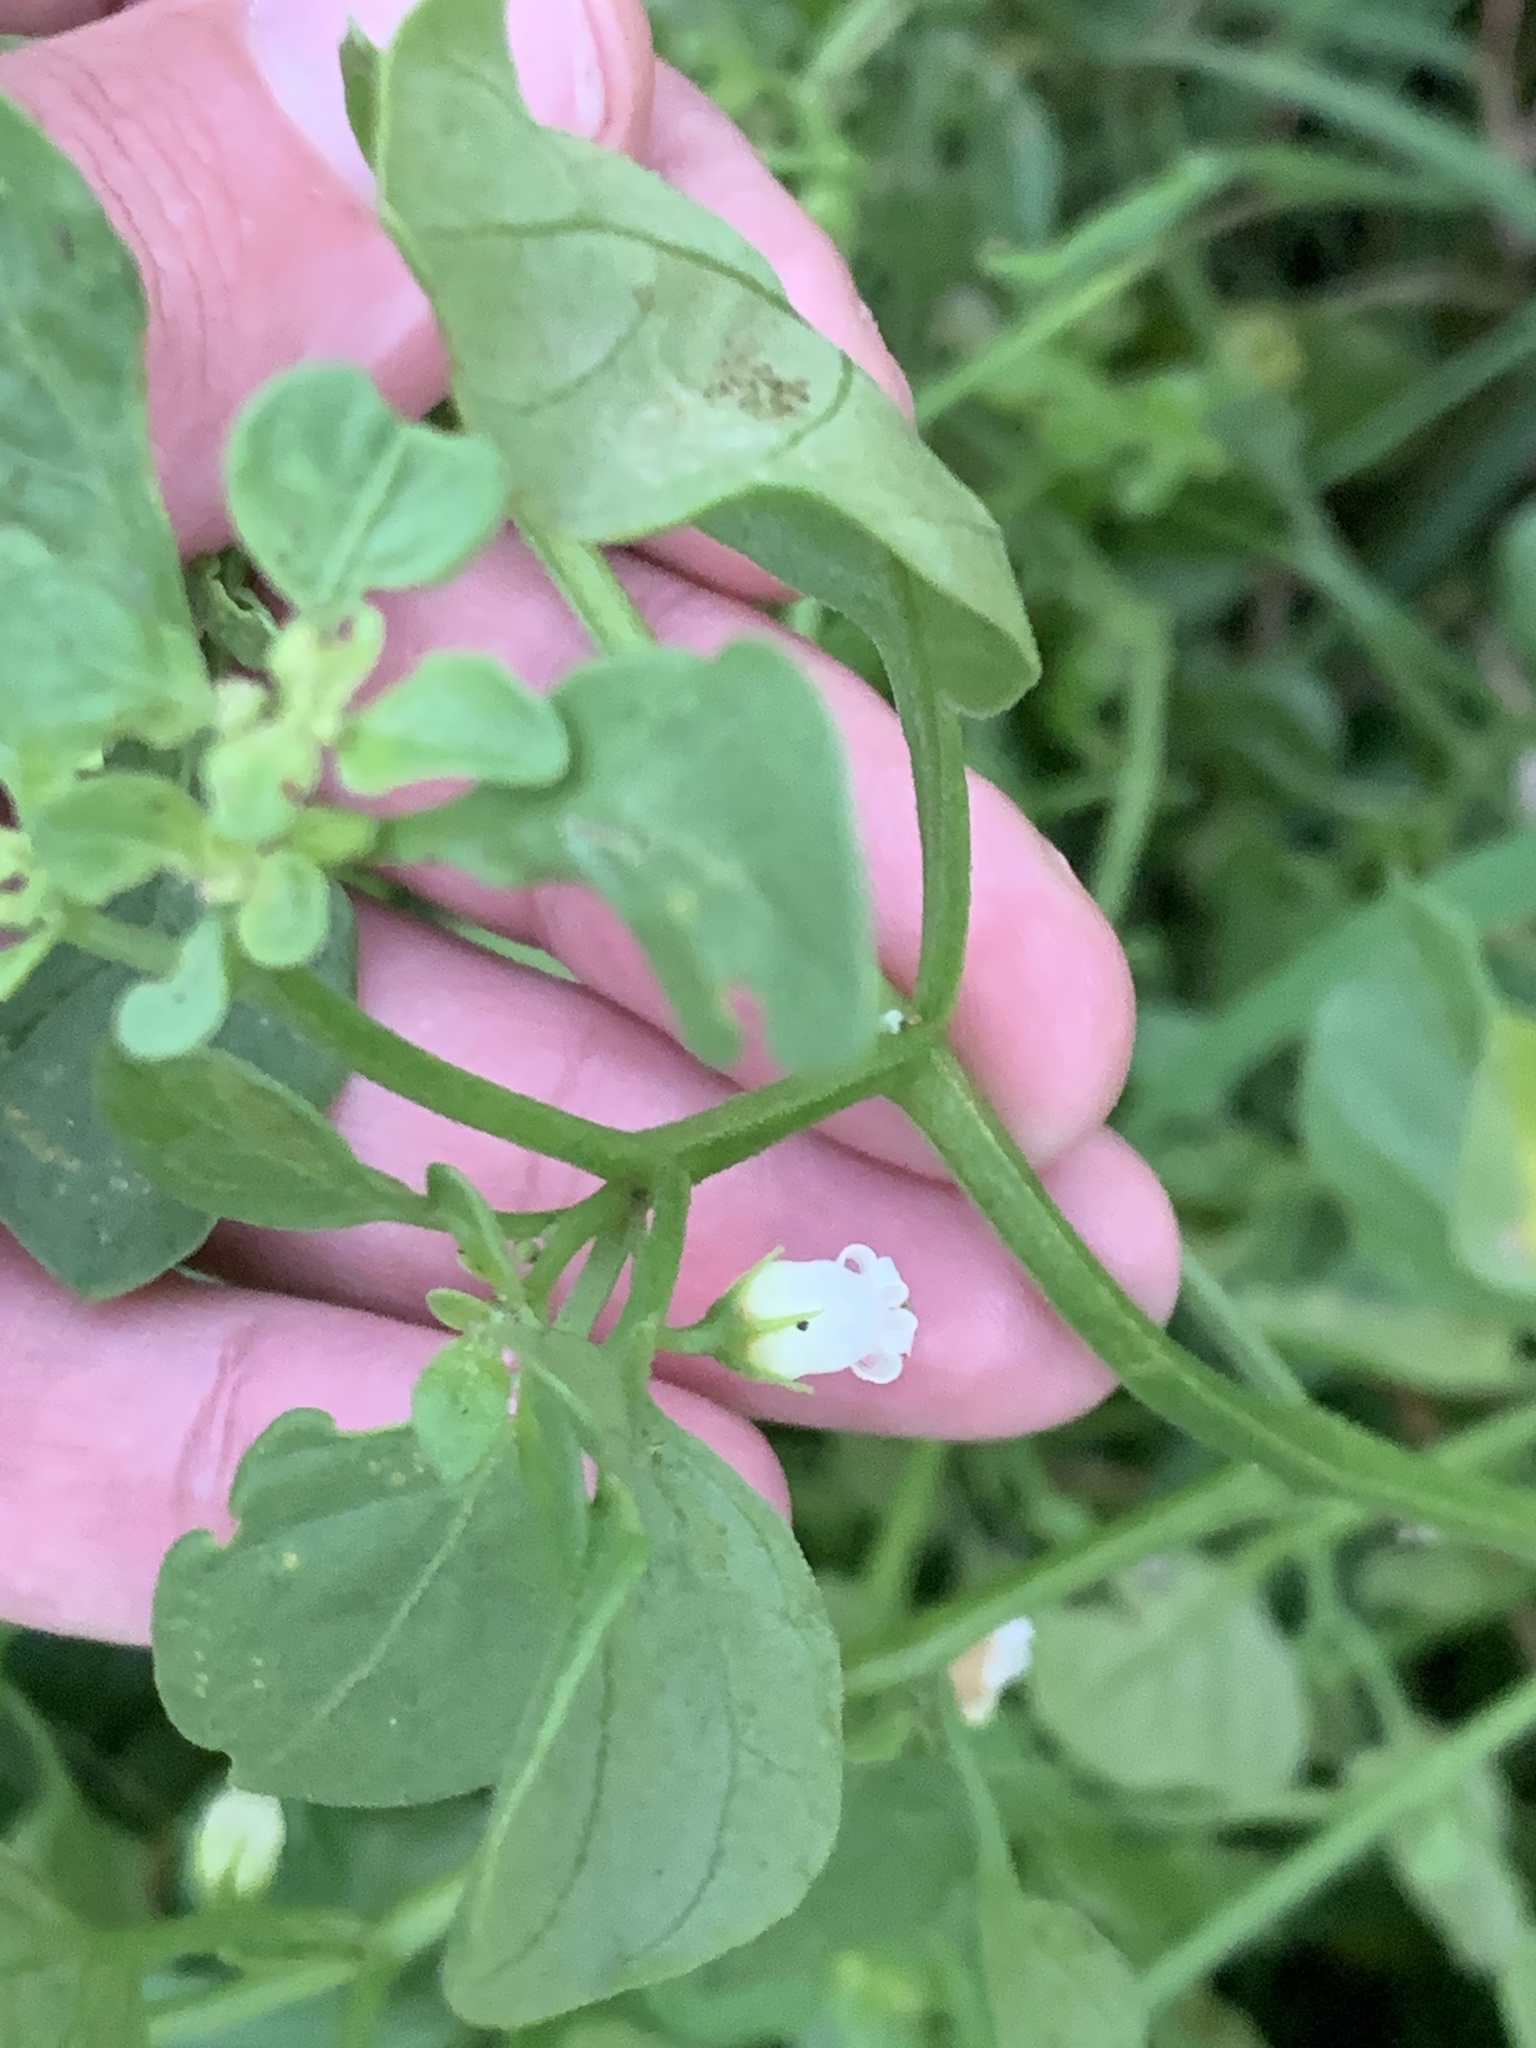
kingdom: Plantae
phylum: Tracheophyta
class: Magnoliopsida
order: Solanales
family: Solanaceae
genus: Salpichroa
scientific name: Salpichroa origanifolia
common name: Lily-of-the-valley-vine
